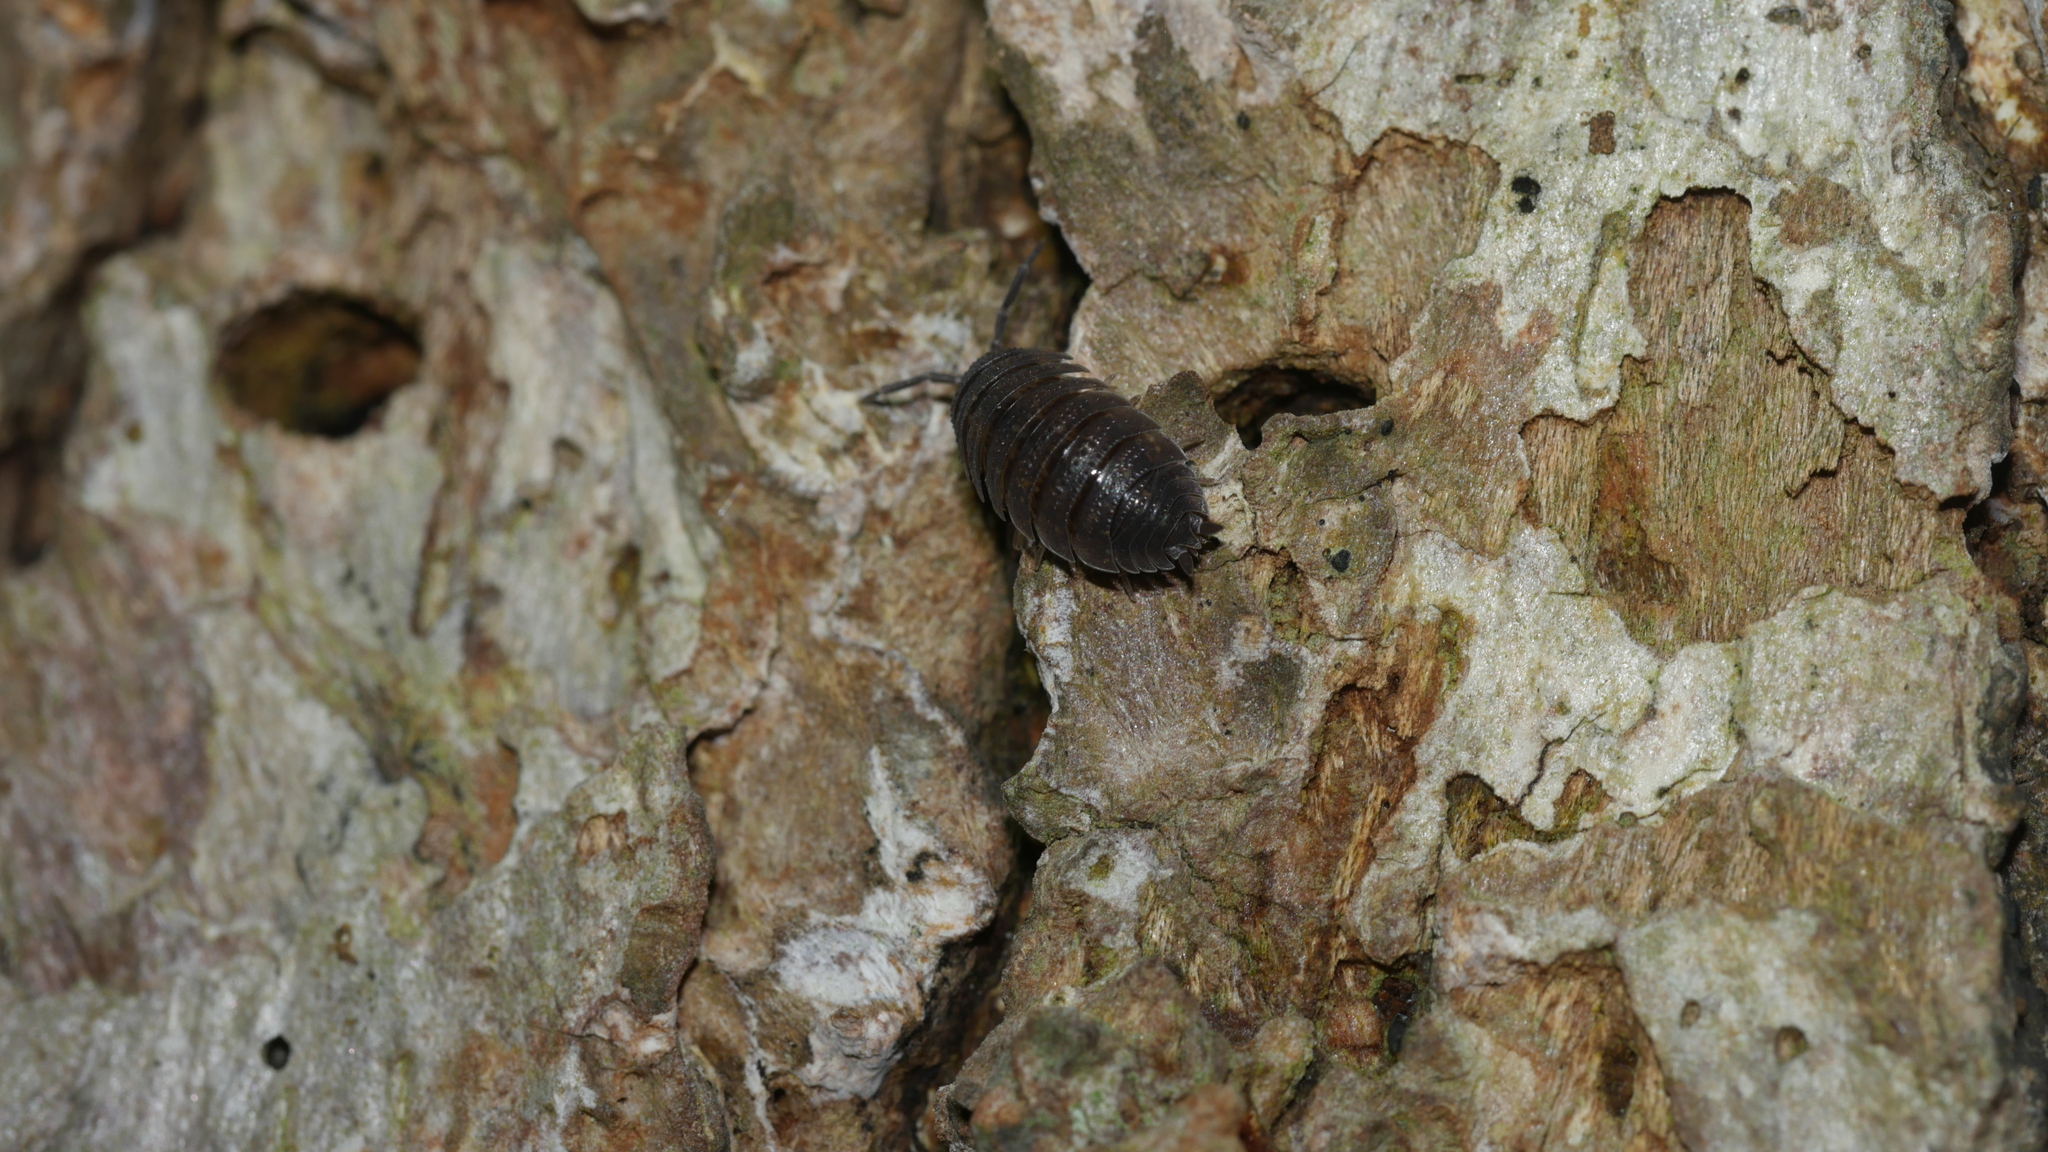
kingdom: Animalia
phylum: Arthropoda
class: Malacostraca
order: Isopoda
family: Porcellionidae
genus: Porcellio
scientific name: Porcellio scaber
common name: Common rough woodlouse
